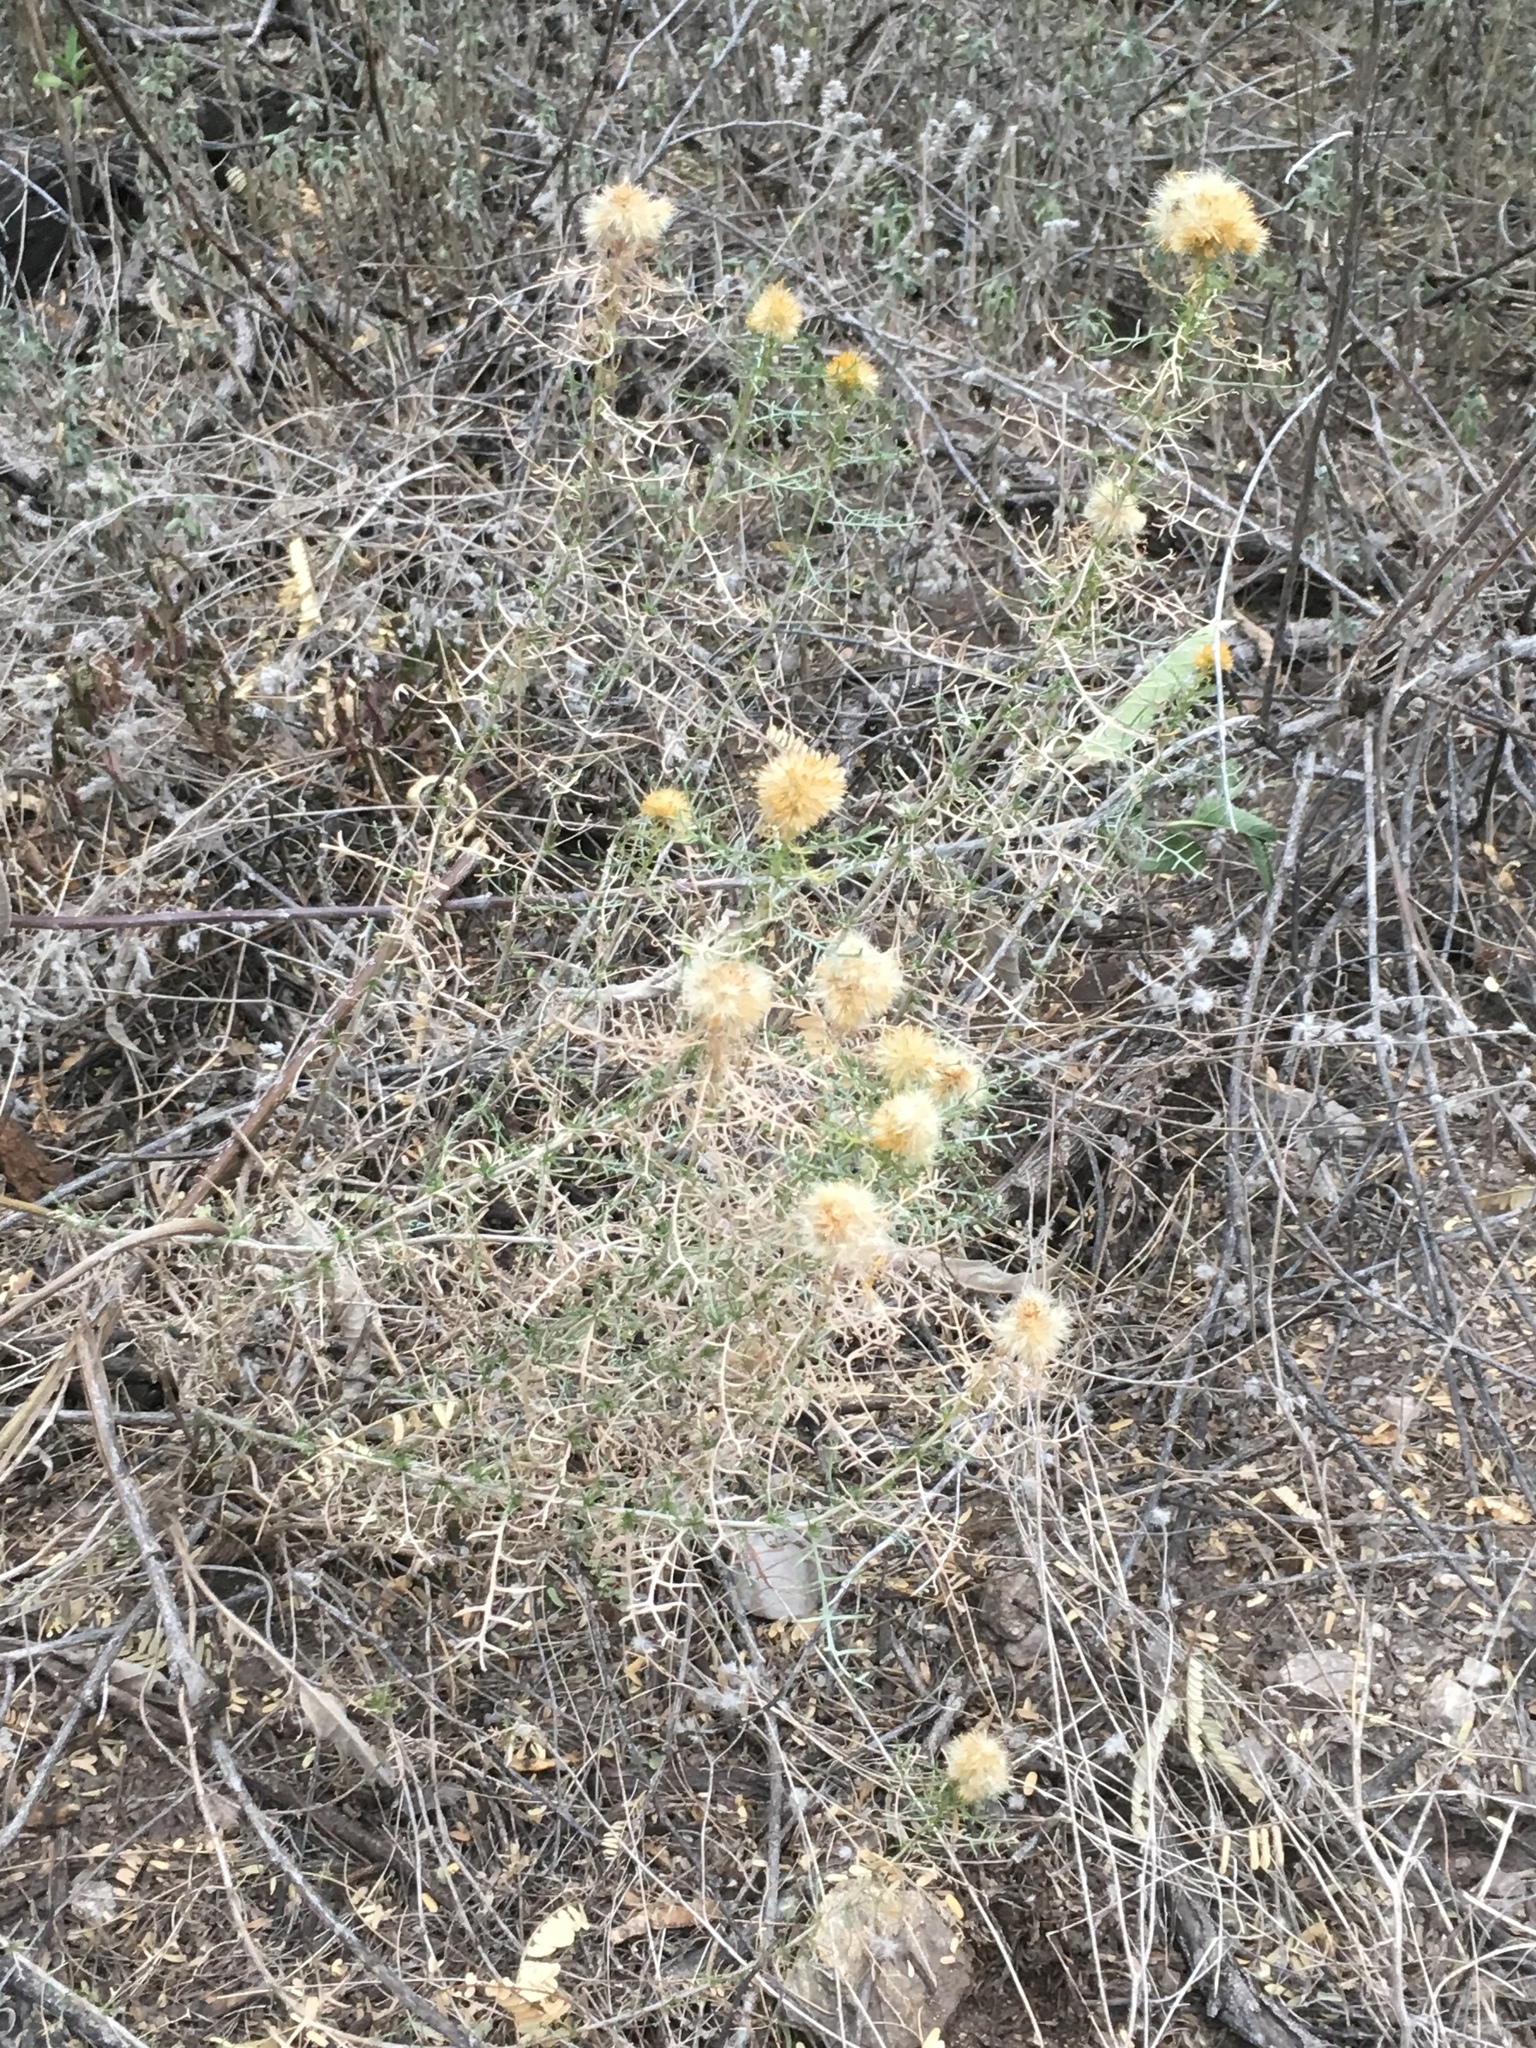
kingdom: Plantae
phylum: Tracheophyta
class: Magnoliopsida
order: Asterales
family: Asteraceae
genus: Isocoma
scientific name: Isocoma tenuisecta
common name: Burroweed
